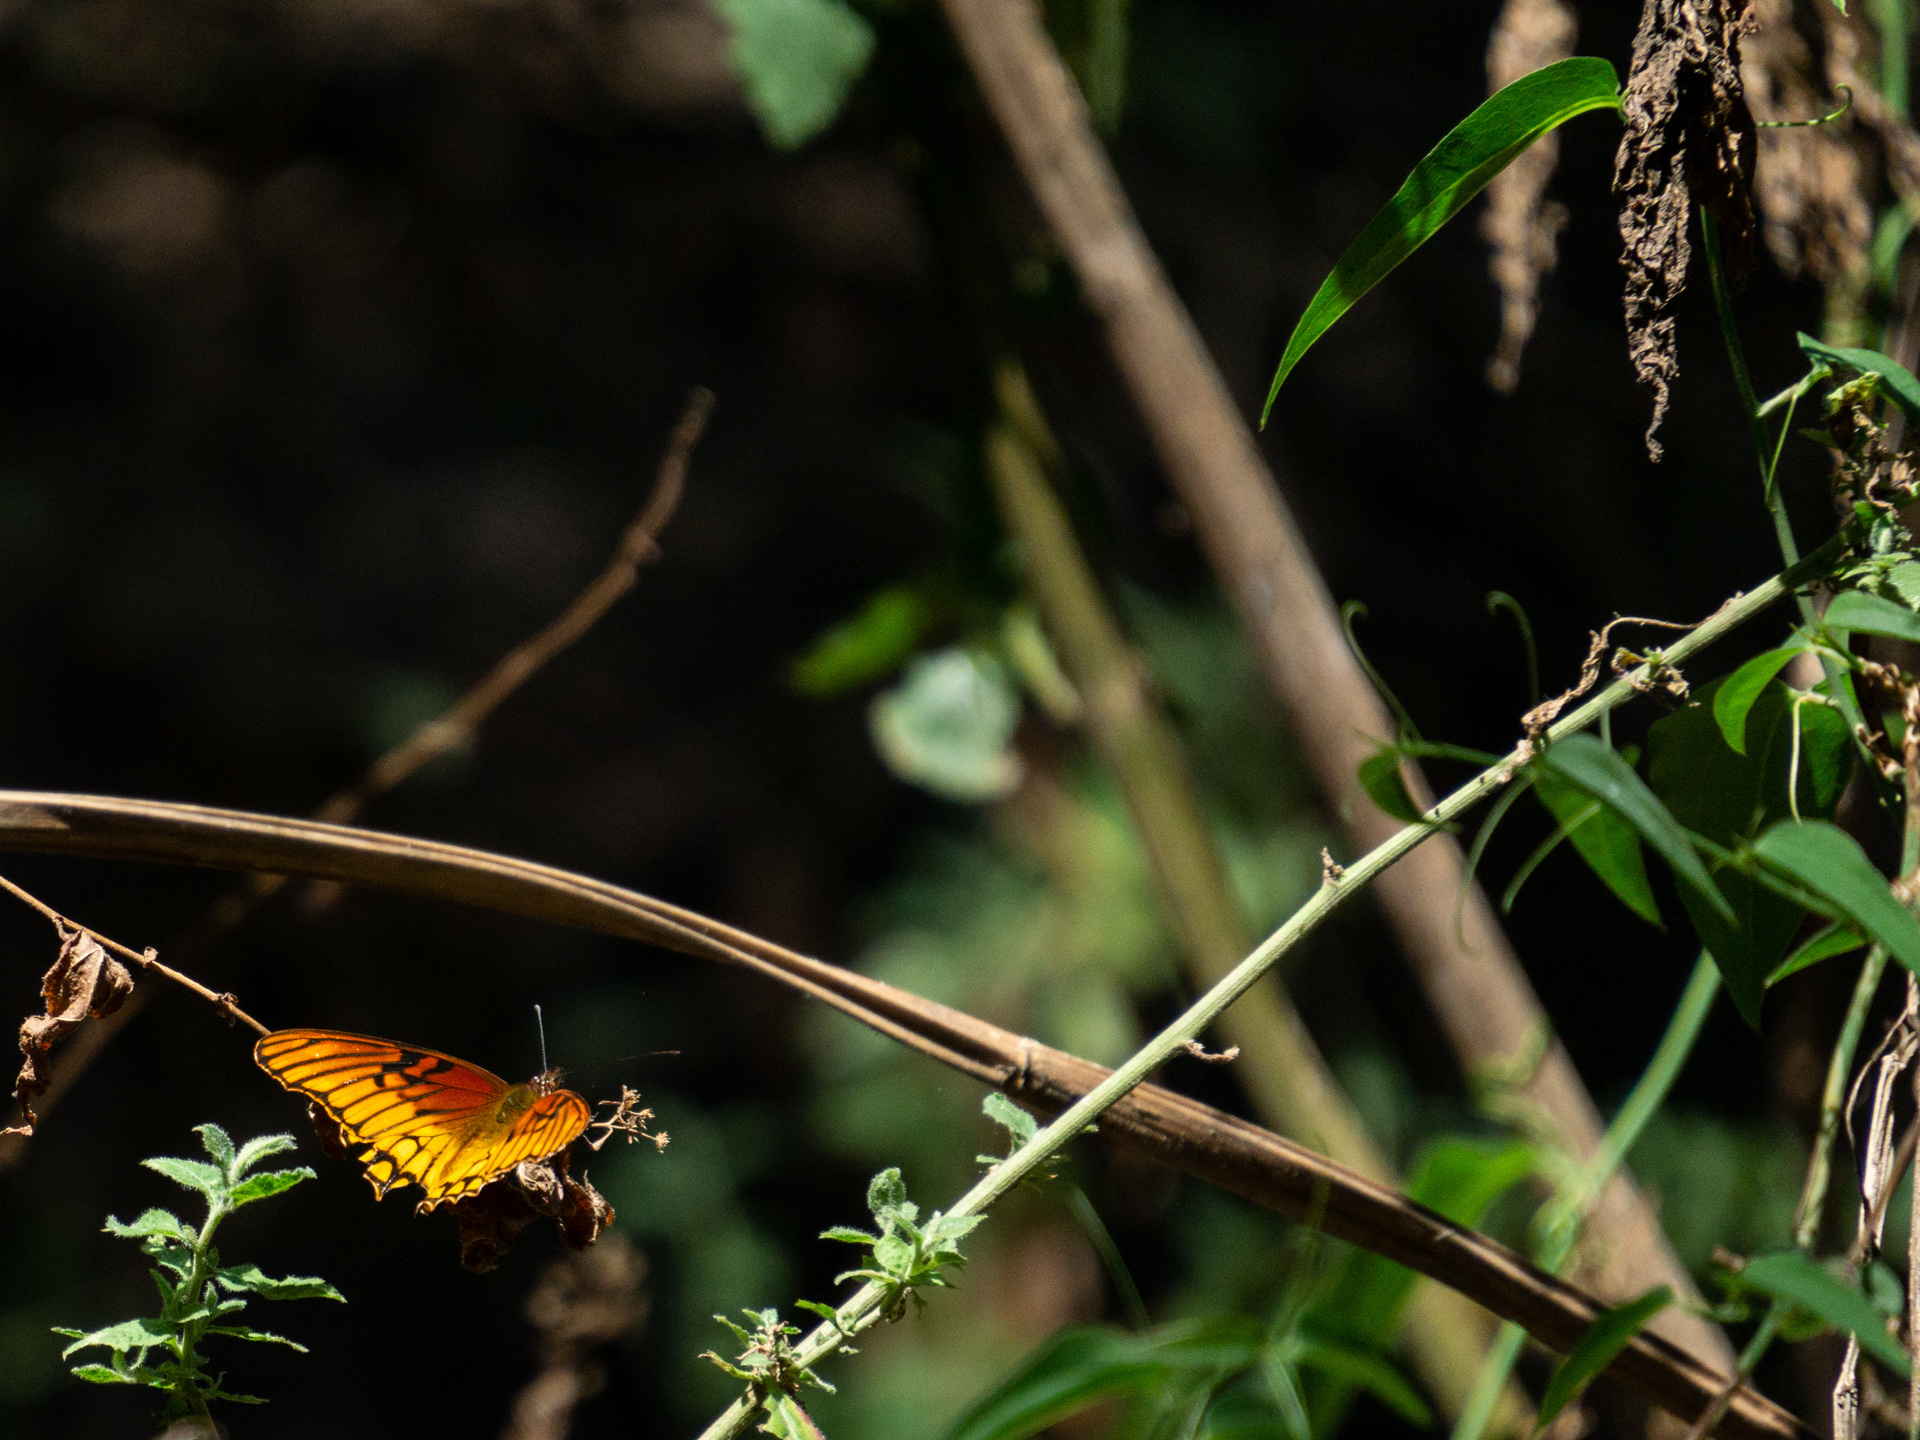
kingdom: Animalia
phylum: Arthropoda
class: Insecta
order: Lepidoptera
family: Nymphalidae
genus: Dione
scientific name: Dione moneta
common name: Mexican silverspot
